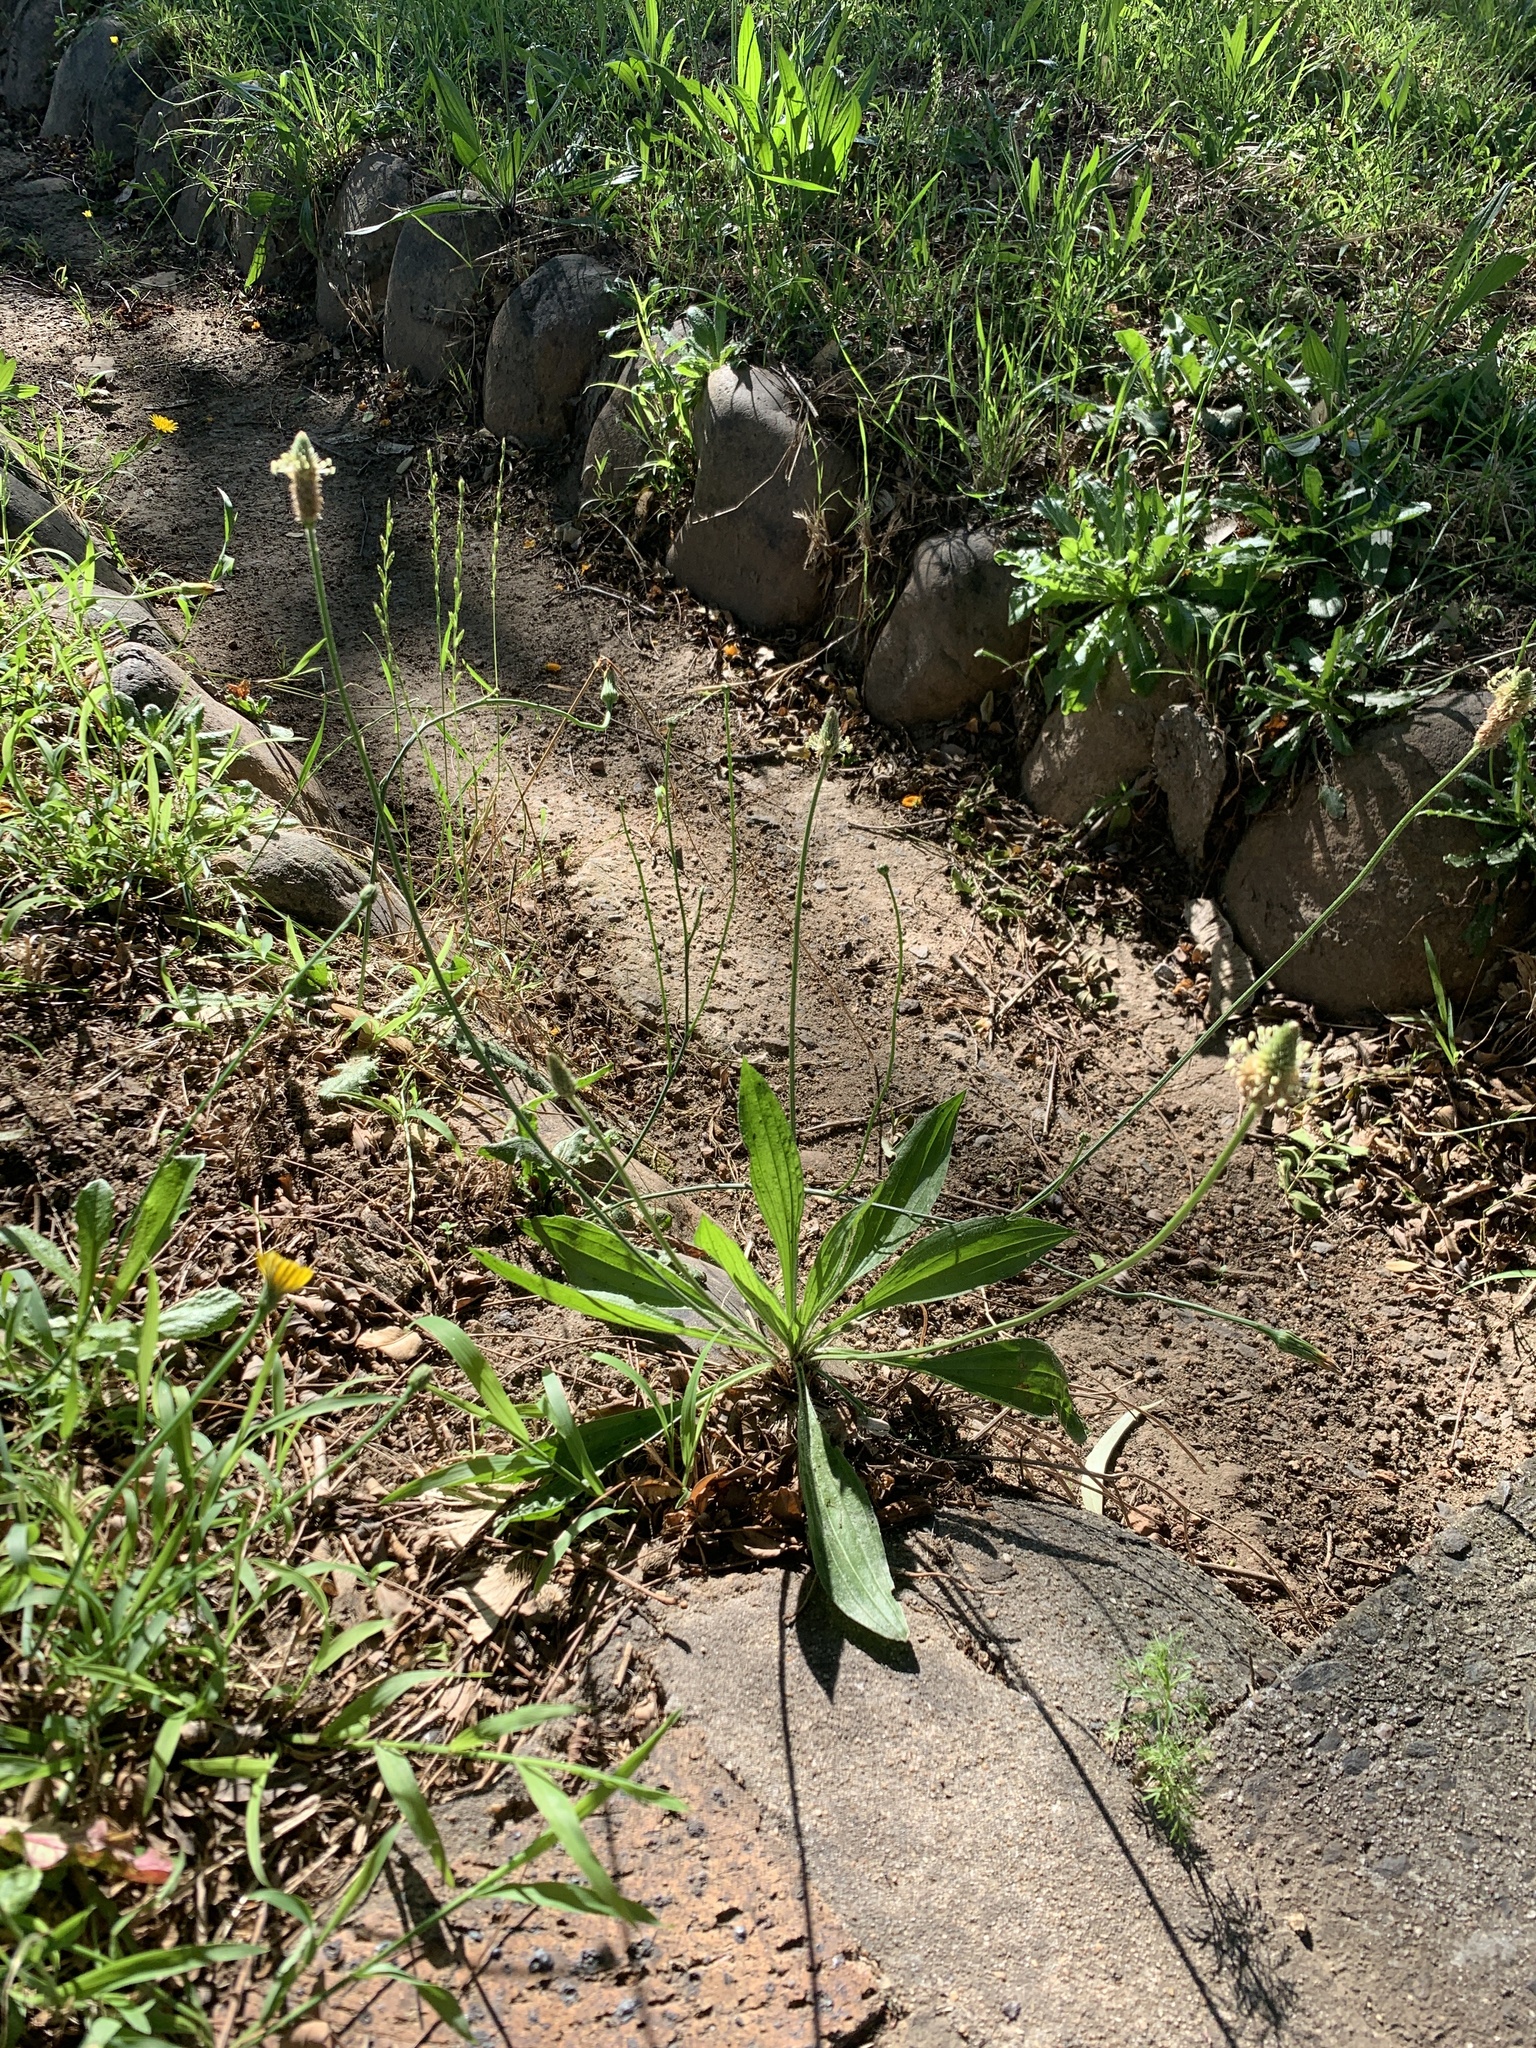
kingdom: Plantae
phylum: Tracheophyta
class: Magnoliopsida
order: Lamiales
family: Plantaginaceae
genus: Plantago
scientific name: Plantago lanceolata
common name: Ribwort plantain
